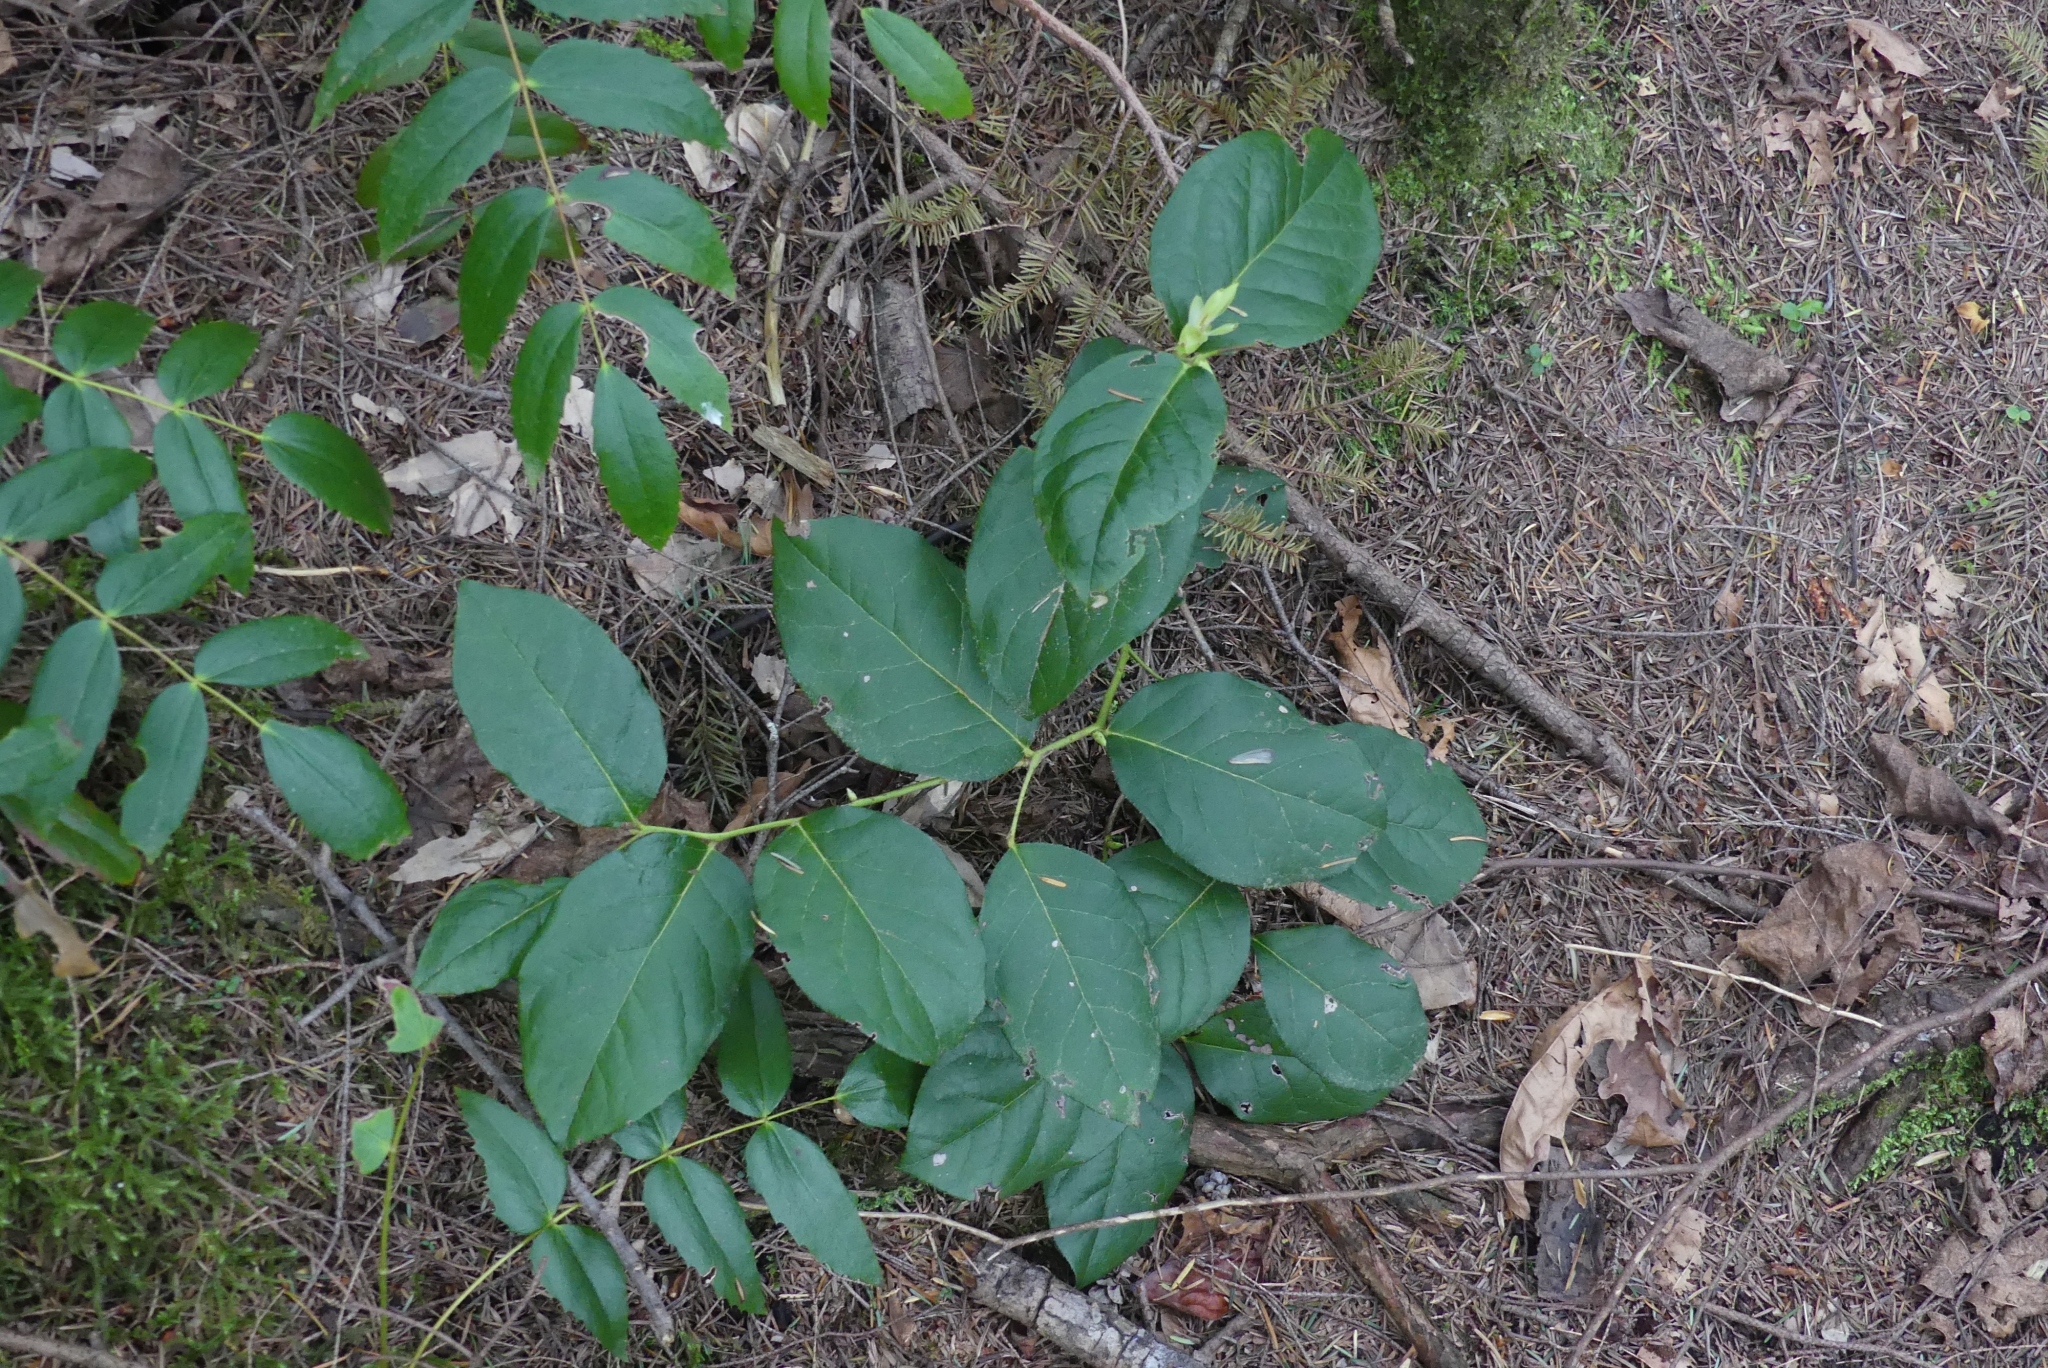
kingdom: Plantae
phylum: Tracheophyta
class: Magnoliopsida
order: Ericales
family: Ericaceae
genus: Gaultheria
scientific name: Gaultheria shallon
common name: Shallon
